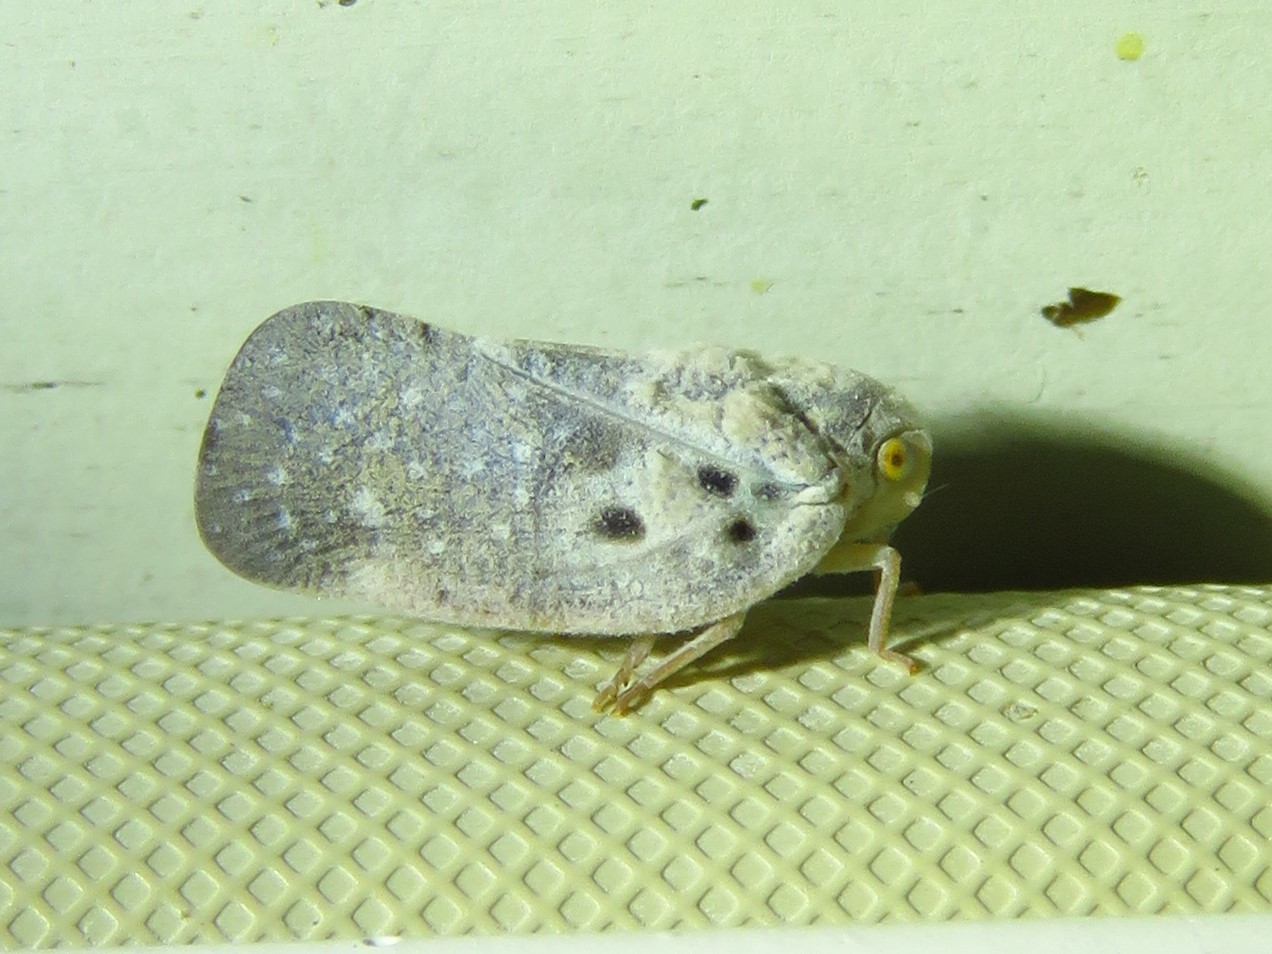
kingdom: Animalia
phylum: Arthropoda
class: Insecta
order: Hemiptera
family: Flatidae
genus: Metcalfa
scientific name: Metcalfa pruinosa
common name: Citrus flatid planthopper
